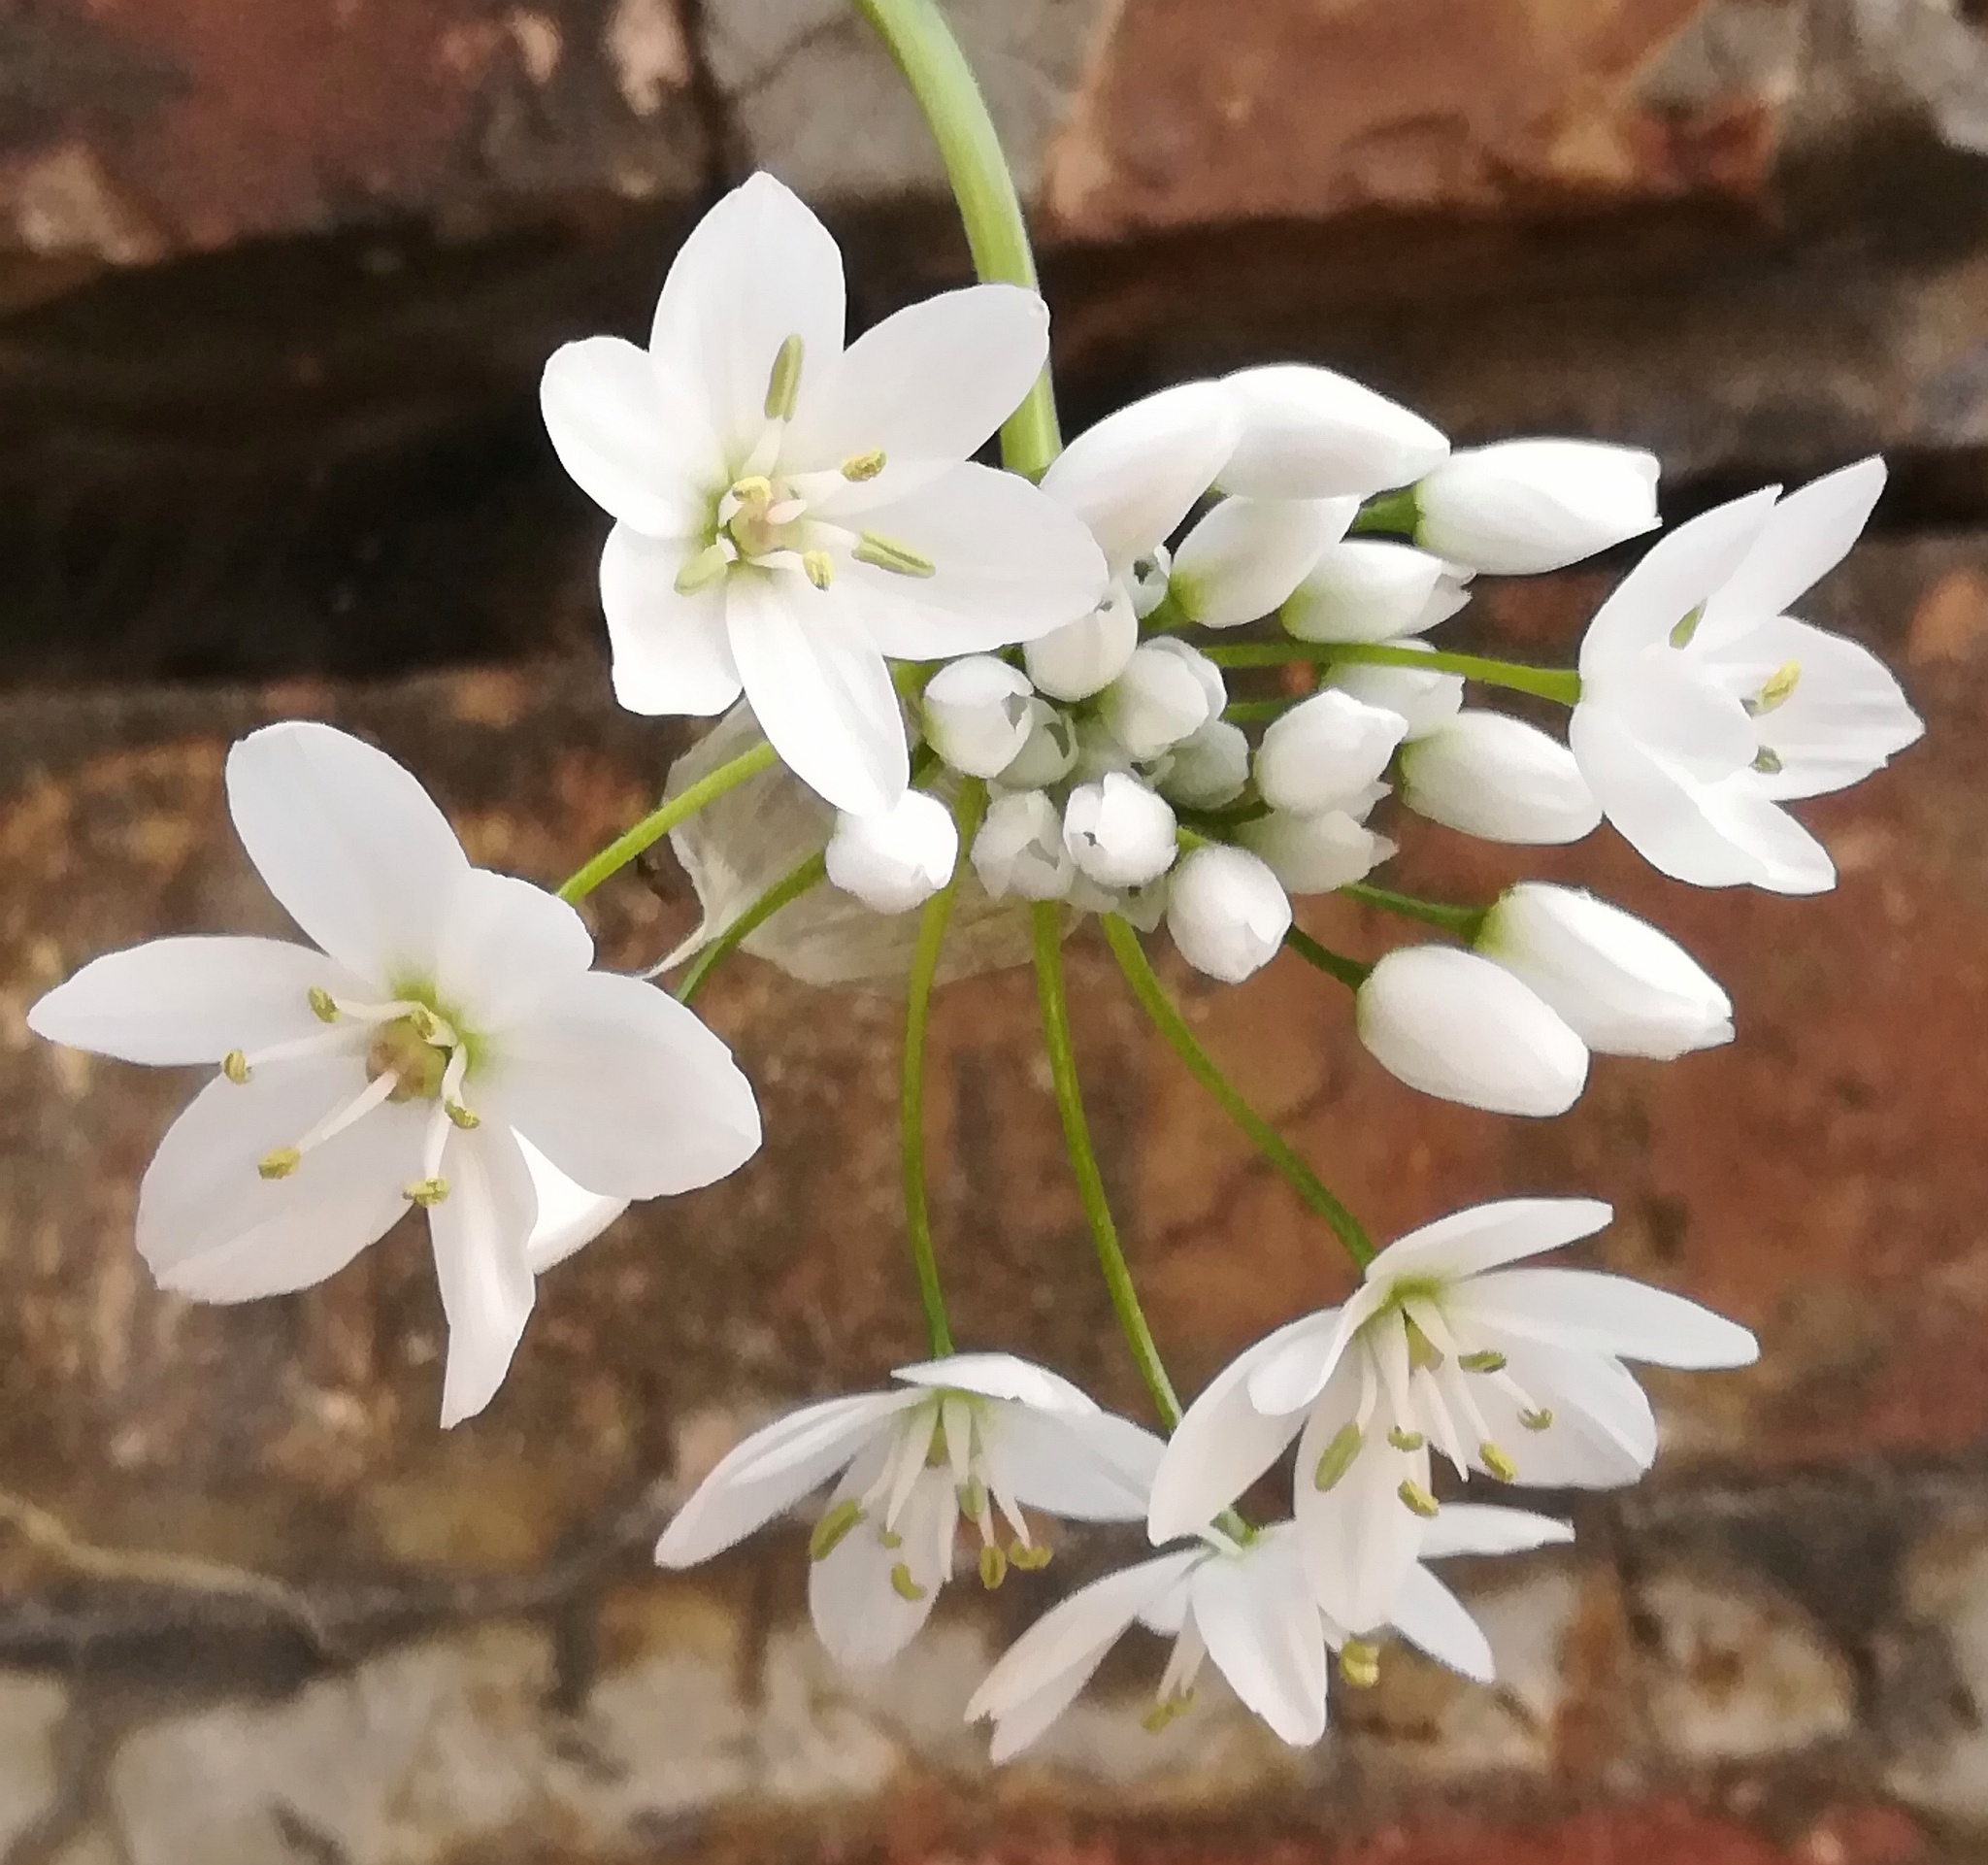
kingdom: Plantae
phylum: Tracheophyta
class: Liliopsida
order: Asparagales
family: Amaryllidaceae
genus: Allium
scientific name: Allium neapolitanum
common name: Neapolitan garlic
